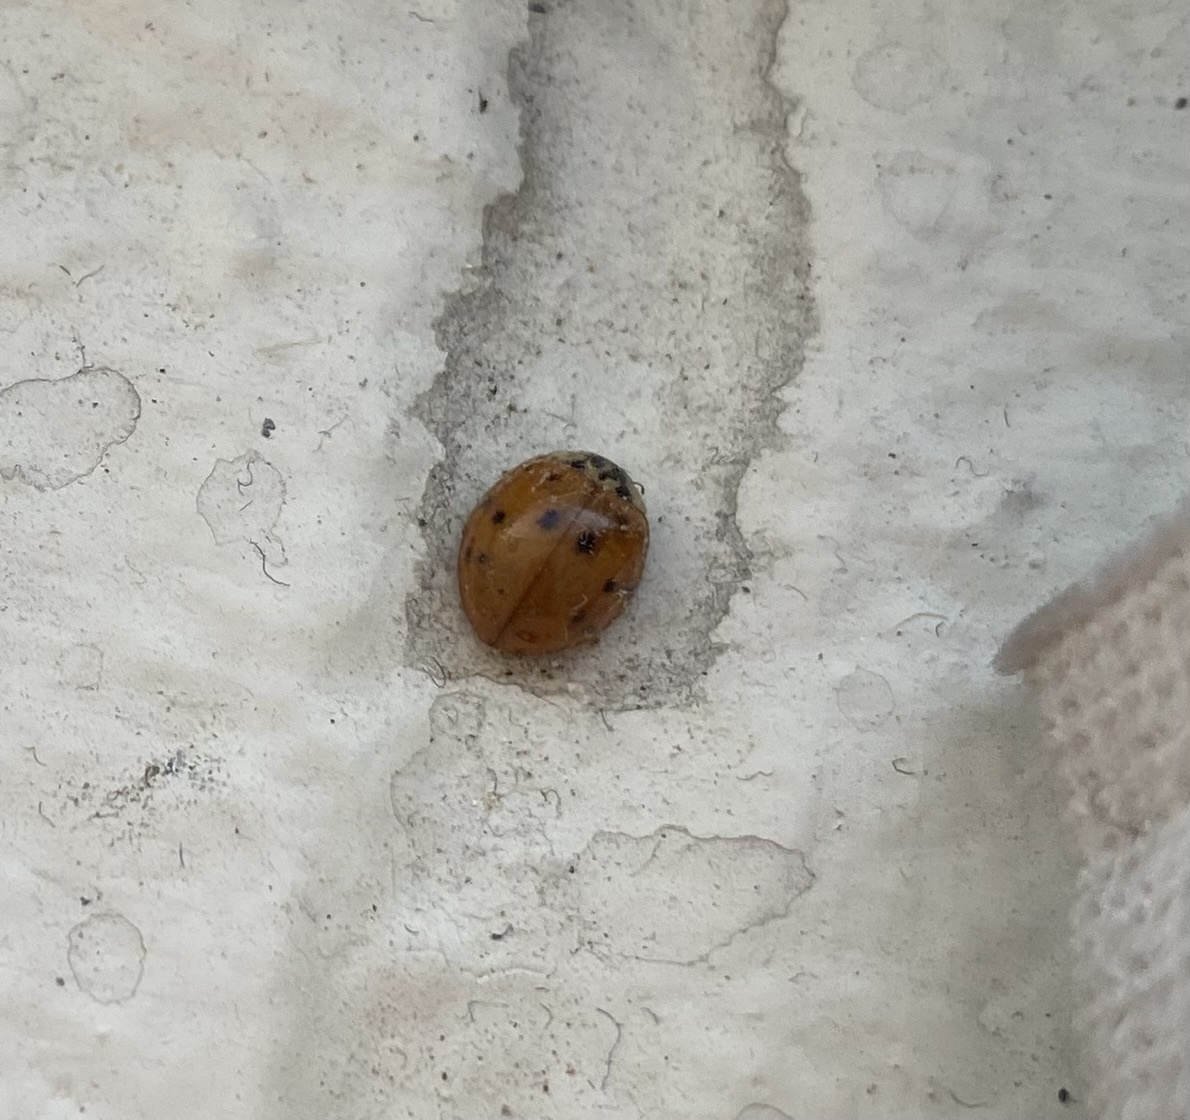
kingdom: Animalia
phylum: Arthropoda
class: Insecta
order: Coleoptera
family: Coccinellidae
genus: Harmonia
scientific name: Harmonia axyridis
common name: Harlequin ladybird
